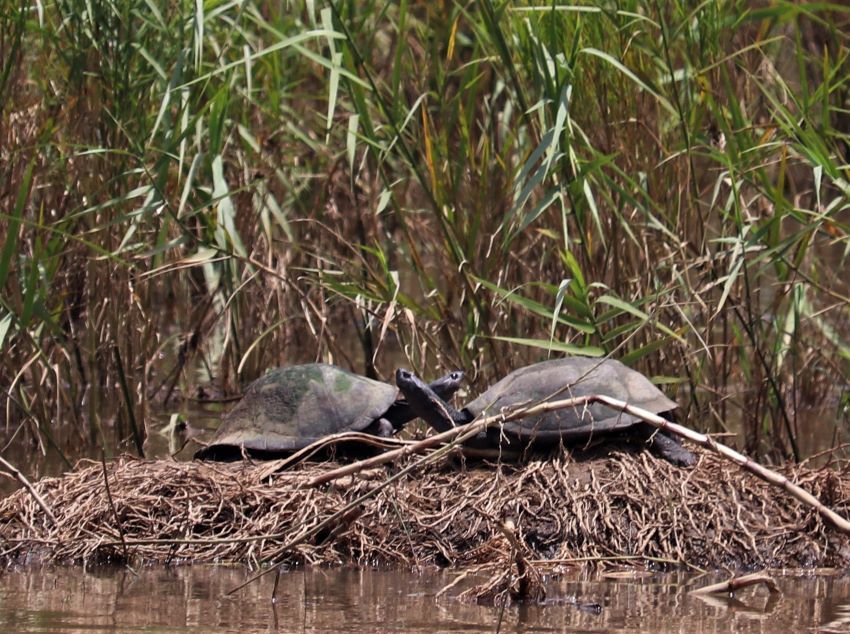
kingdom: Animalia
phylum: Chordata
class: Testudines
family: Pelomedusidae
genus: Pelusios
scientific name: Pelusios sinuatus
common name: Serrated hinged terrapin
